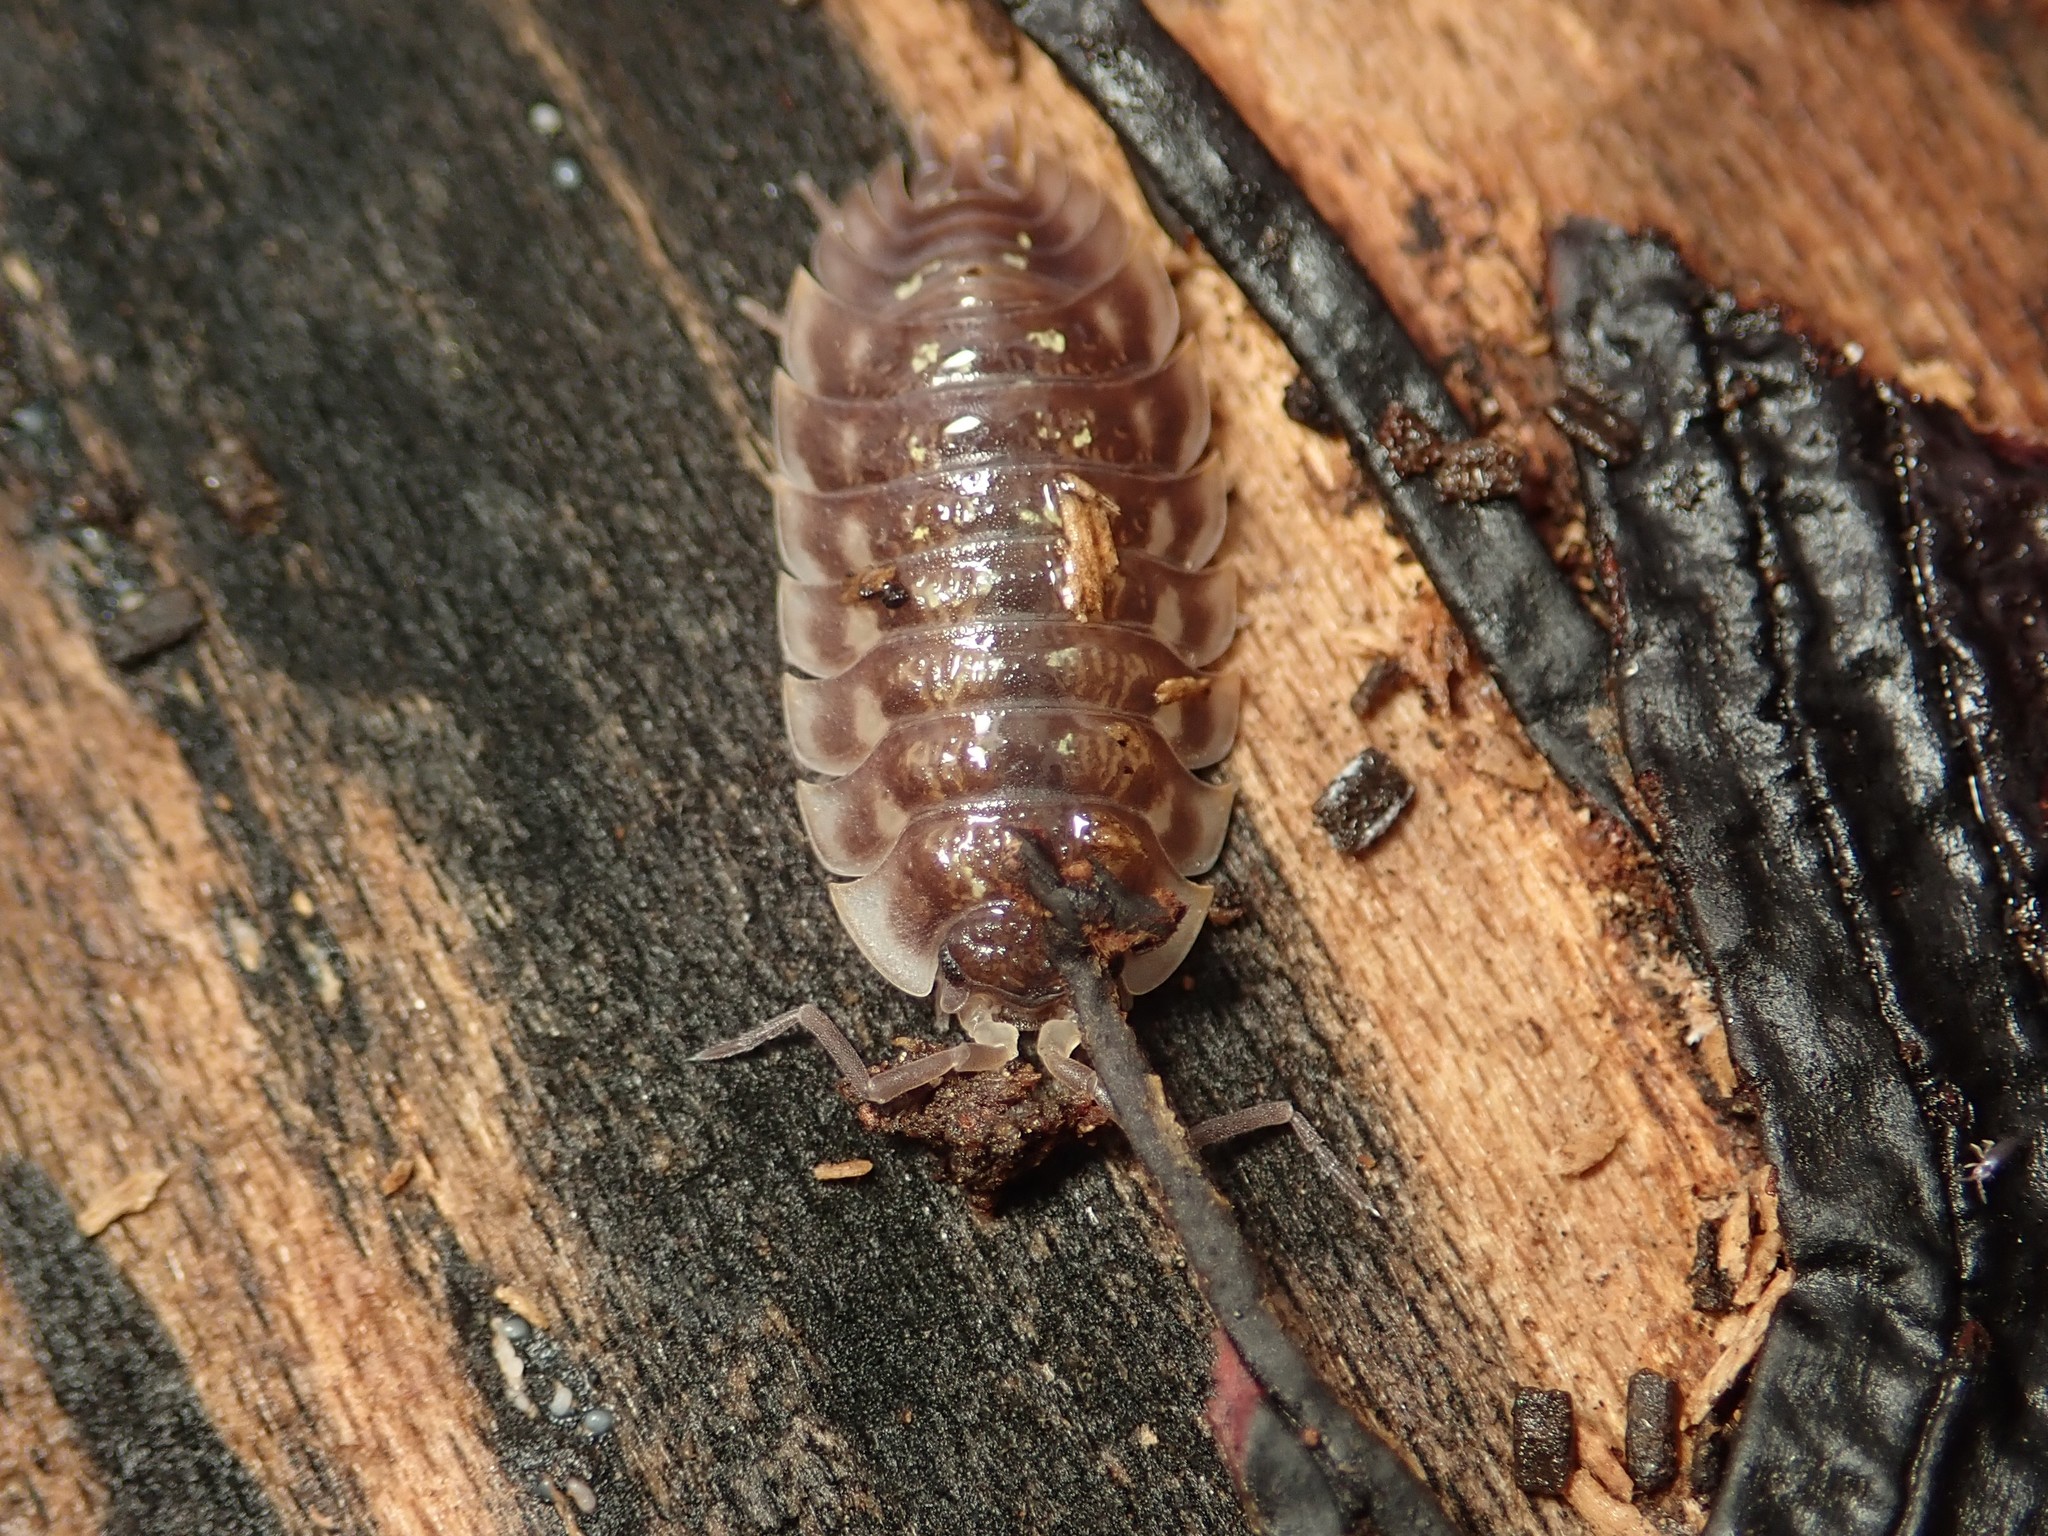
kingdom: Animalia
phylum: Arthropoda
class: Malacostraca
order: Isopoda
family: Oniscidae
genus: Oniscus
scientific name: Oniscus asellus
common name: Common shiny woodlouse
